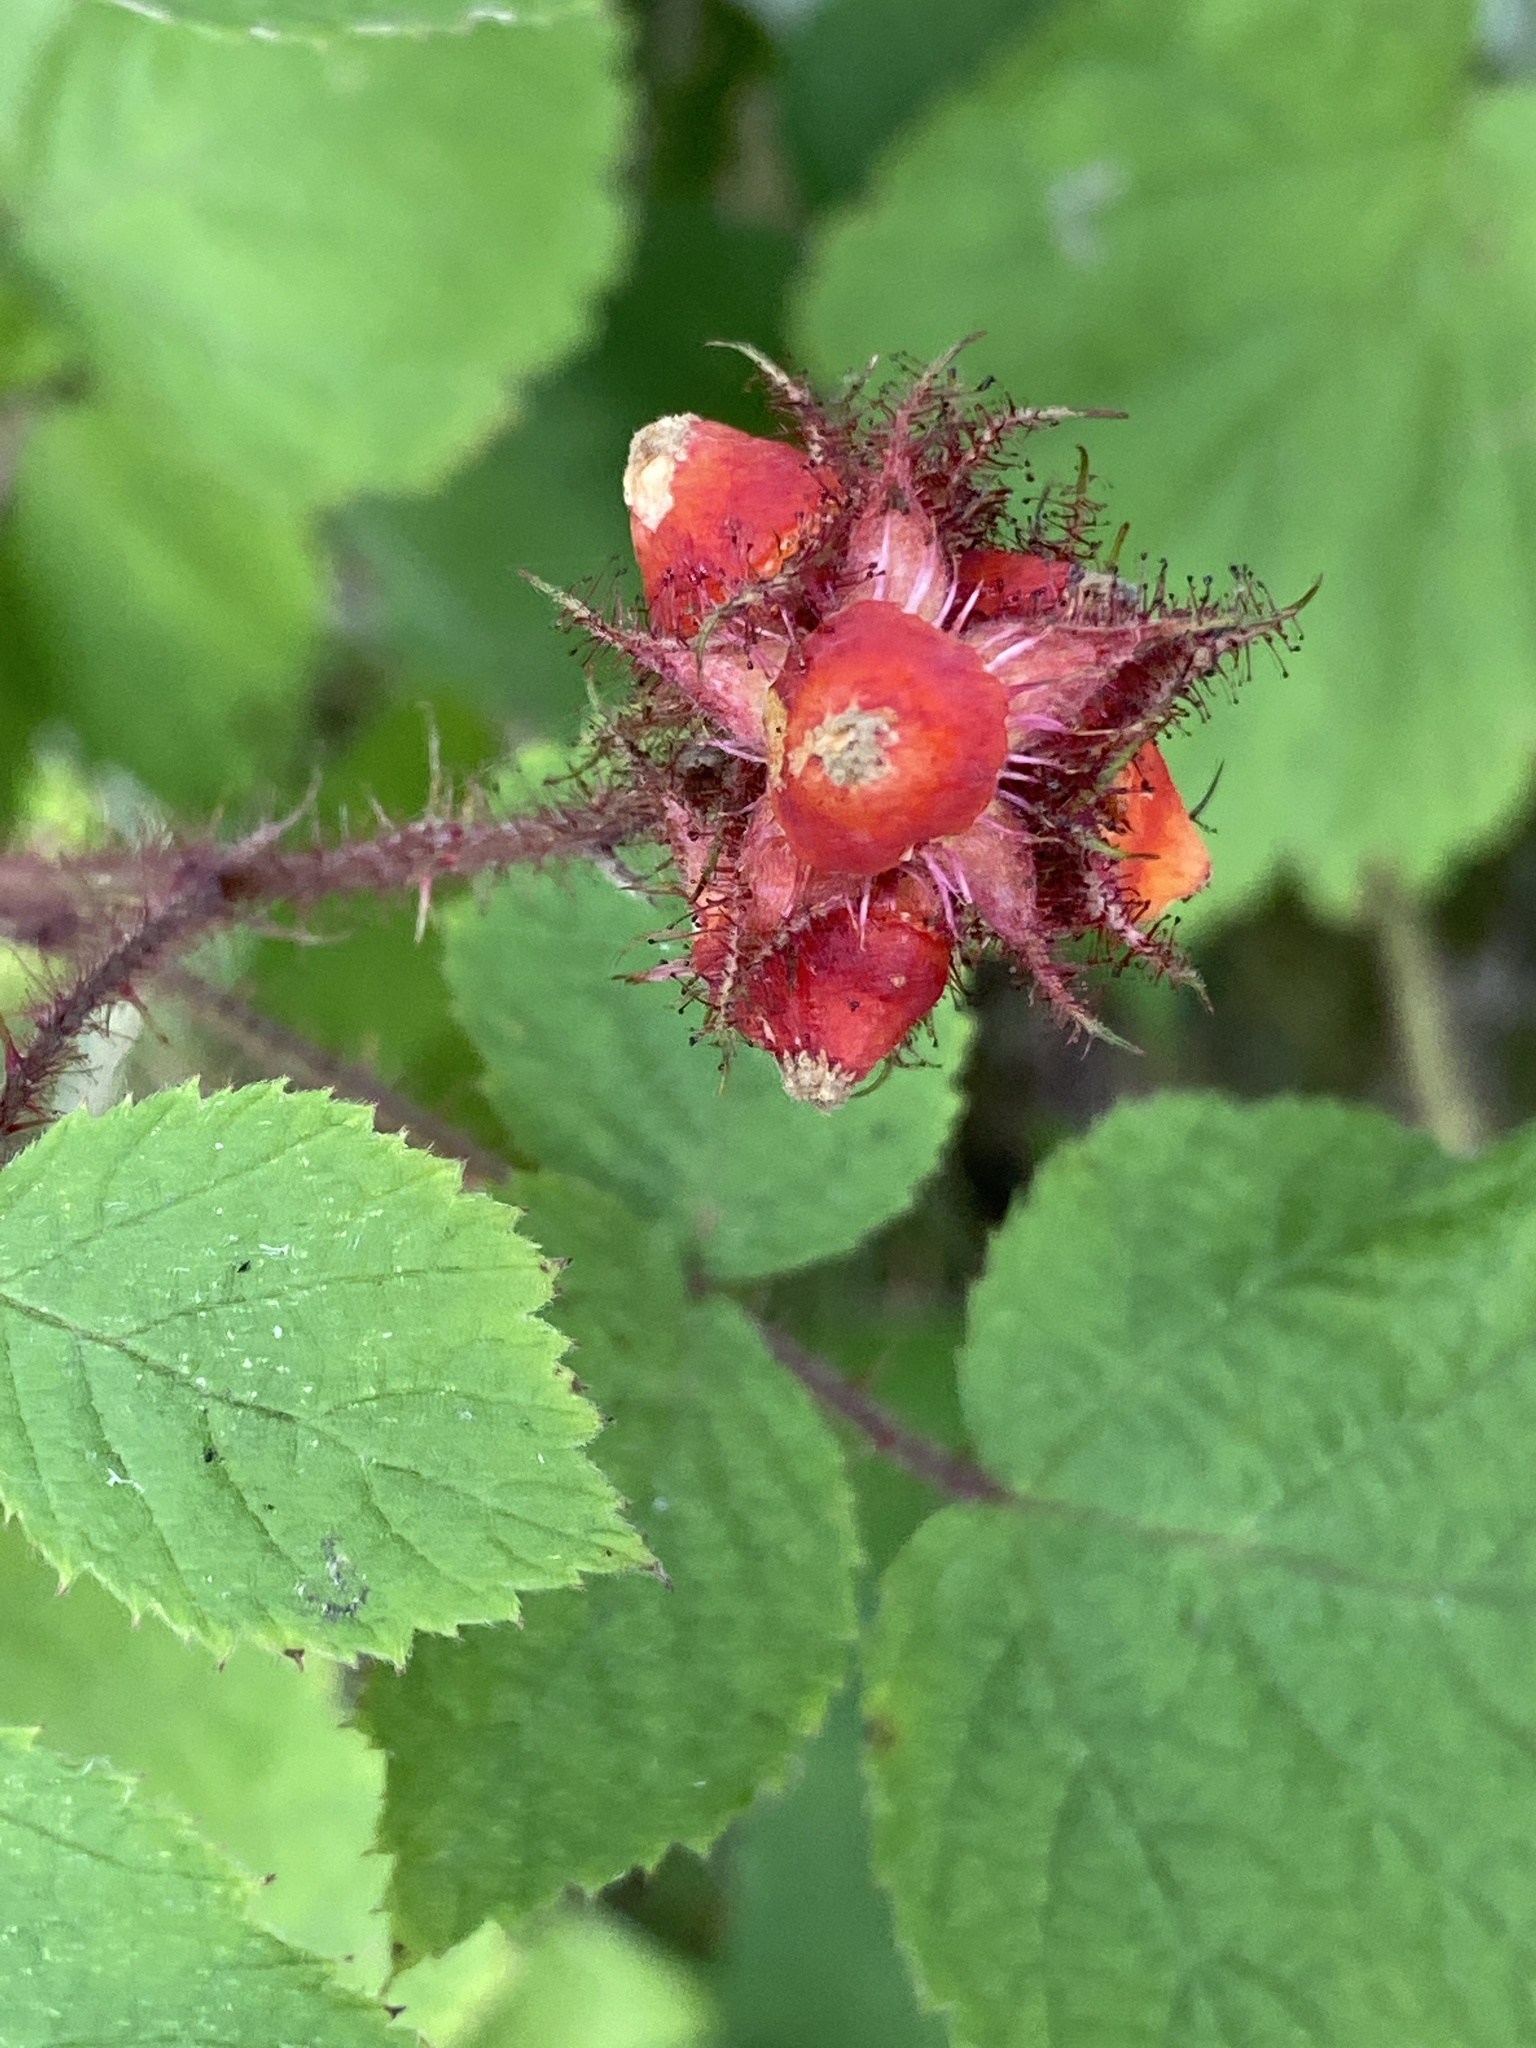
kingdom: Plantae
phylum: Tracheophyta
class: Magnoliopsida
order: Rosales
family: Rosaceae
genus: Rubus
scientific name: Rubus phoenicolasius
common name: Japanese wineberry
